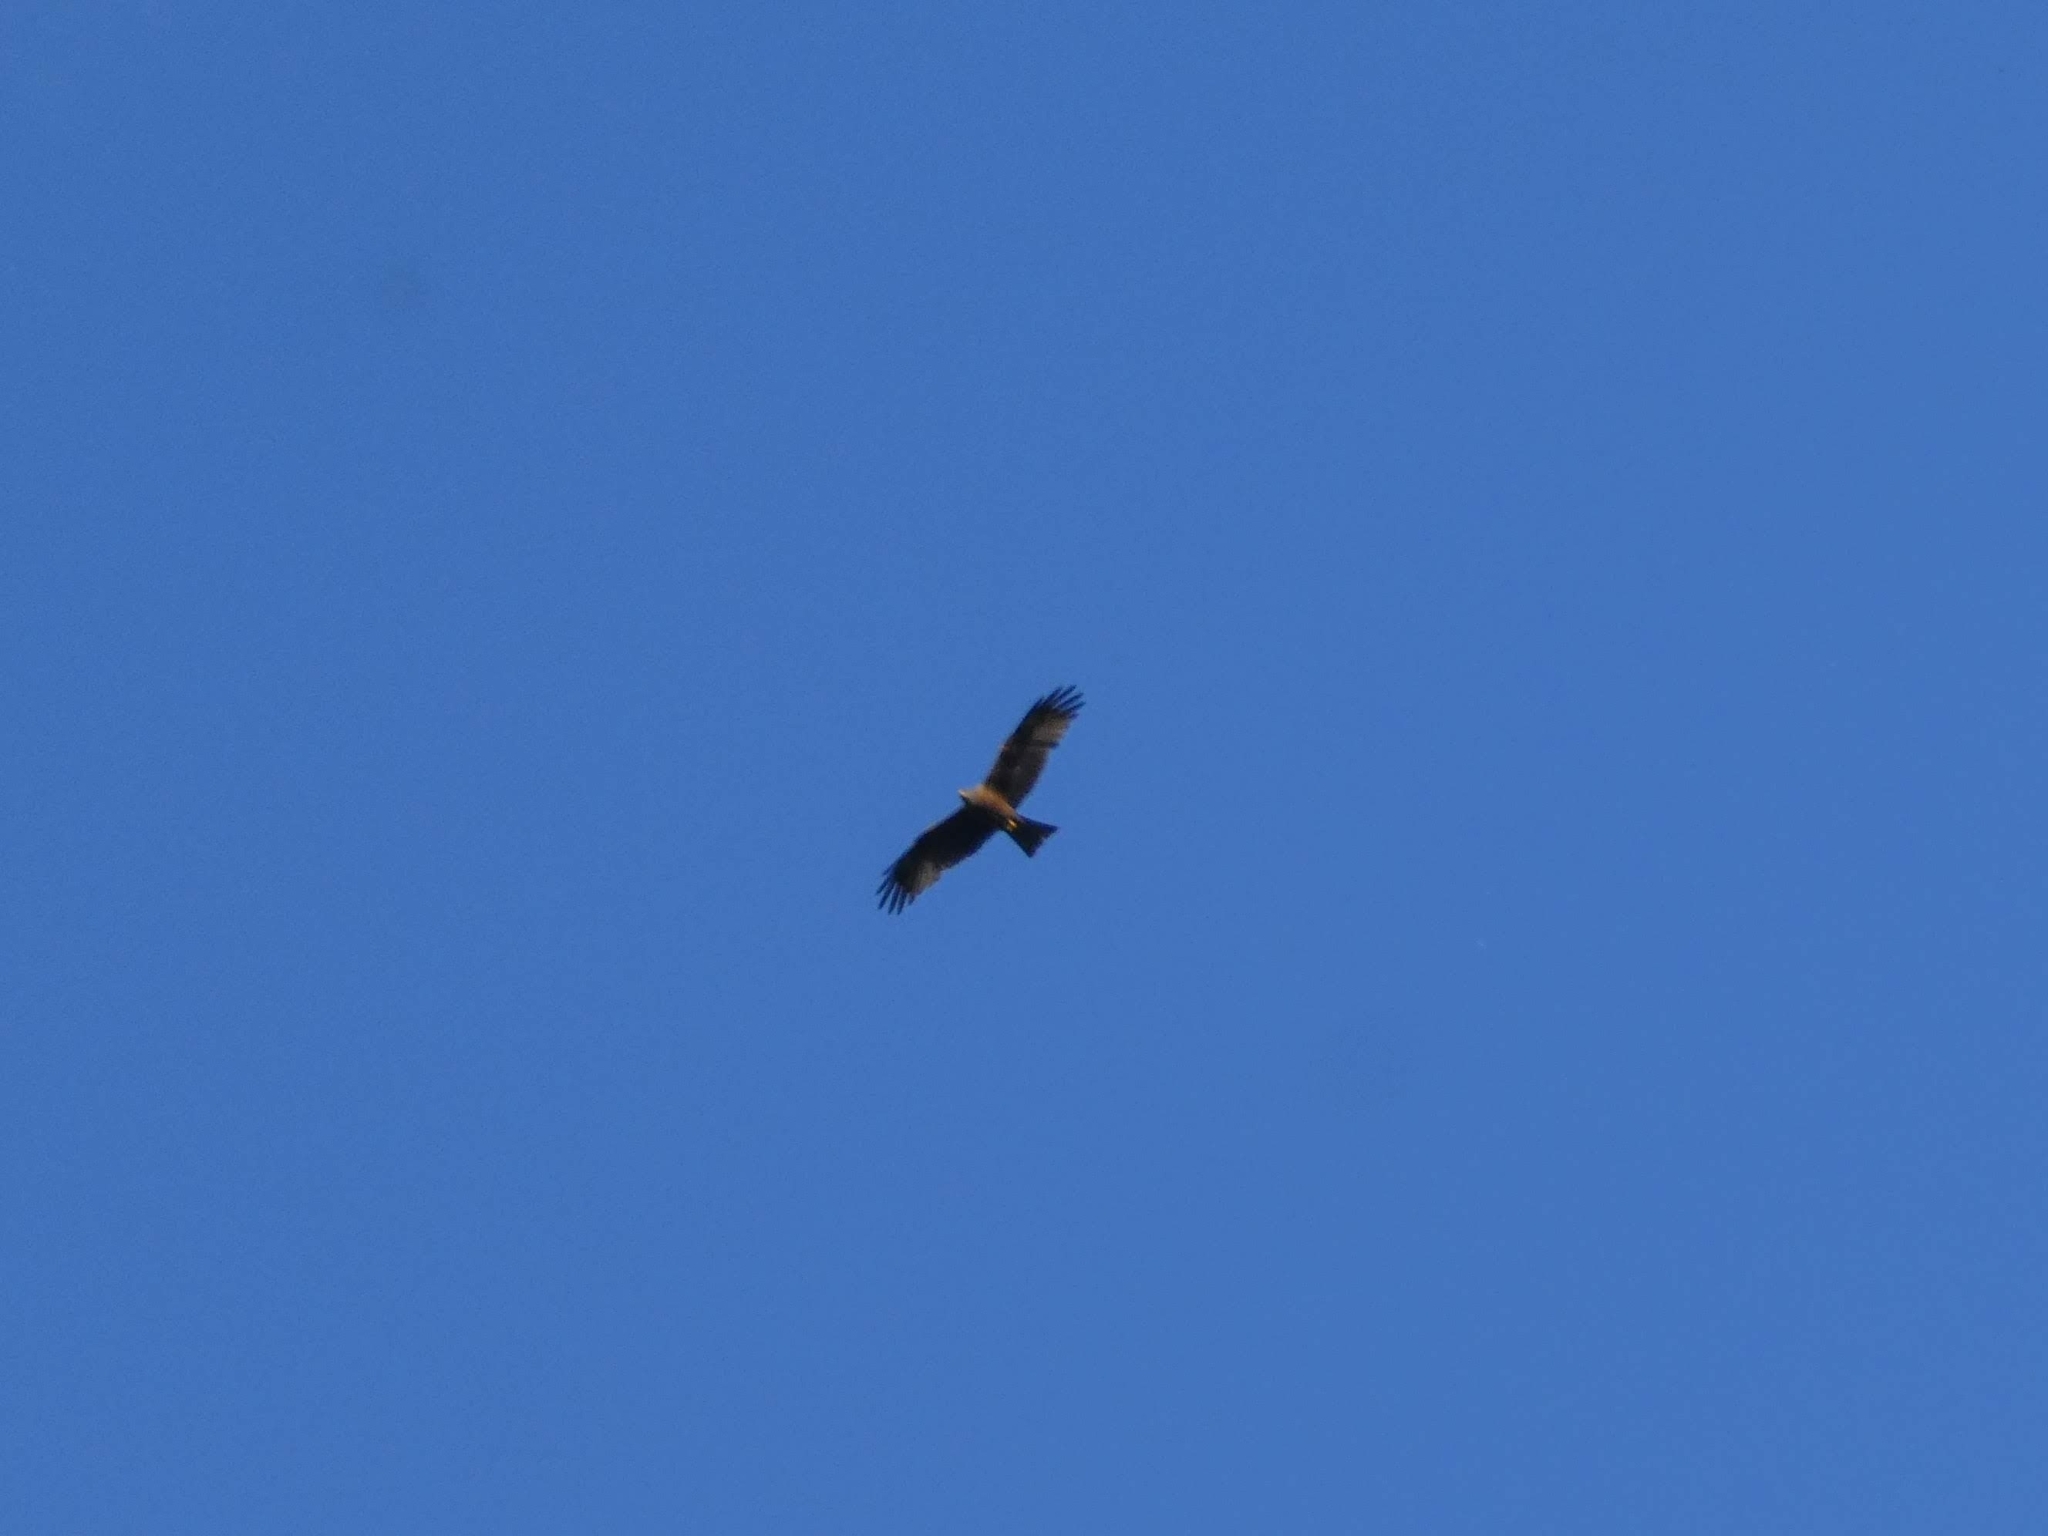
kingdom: Animalia
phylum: Chordata
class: Aves
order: Accipitriformes
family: Accipitridae
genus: Milvus
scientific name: Milvus migrans
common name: Black kite
